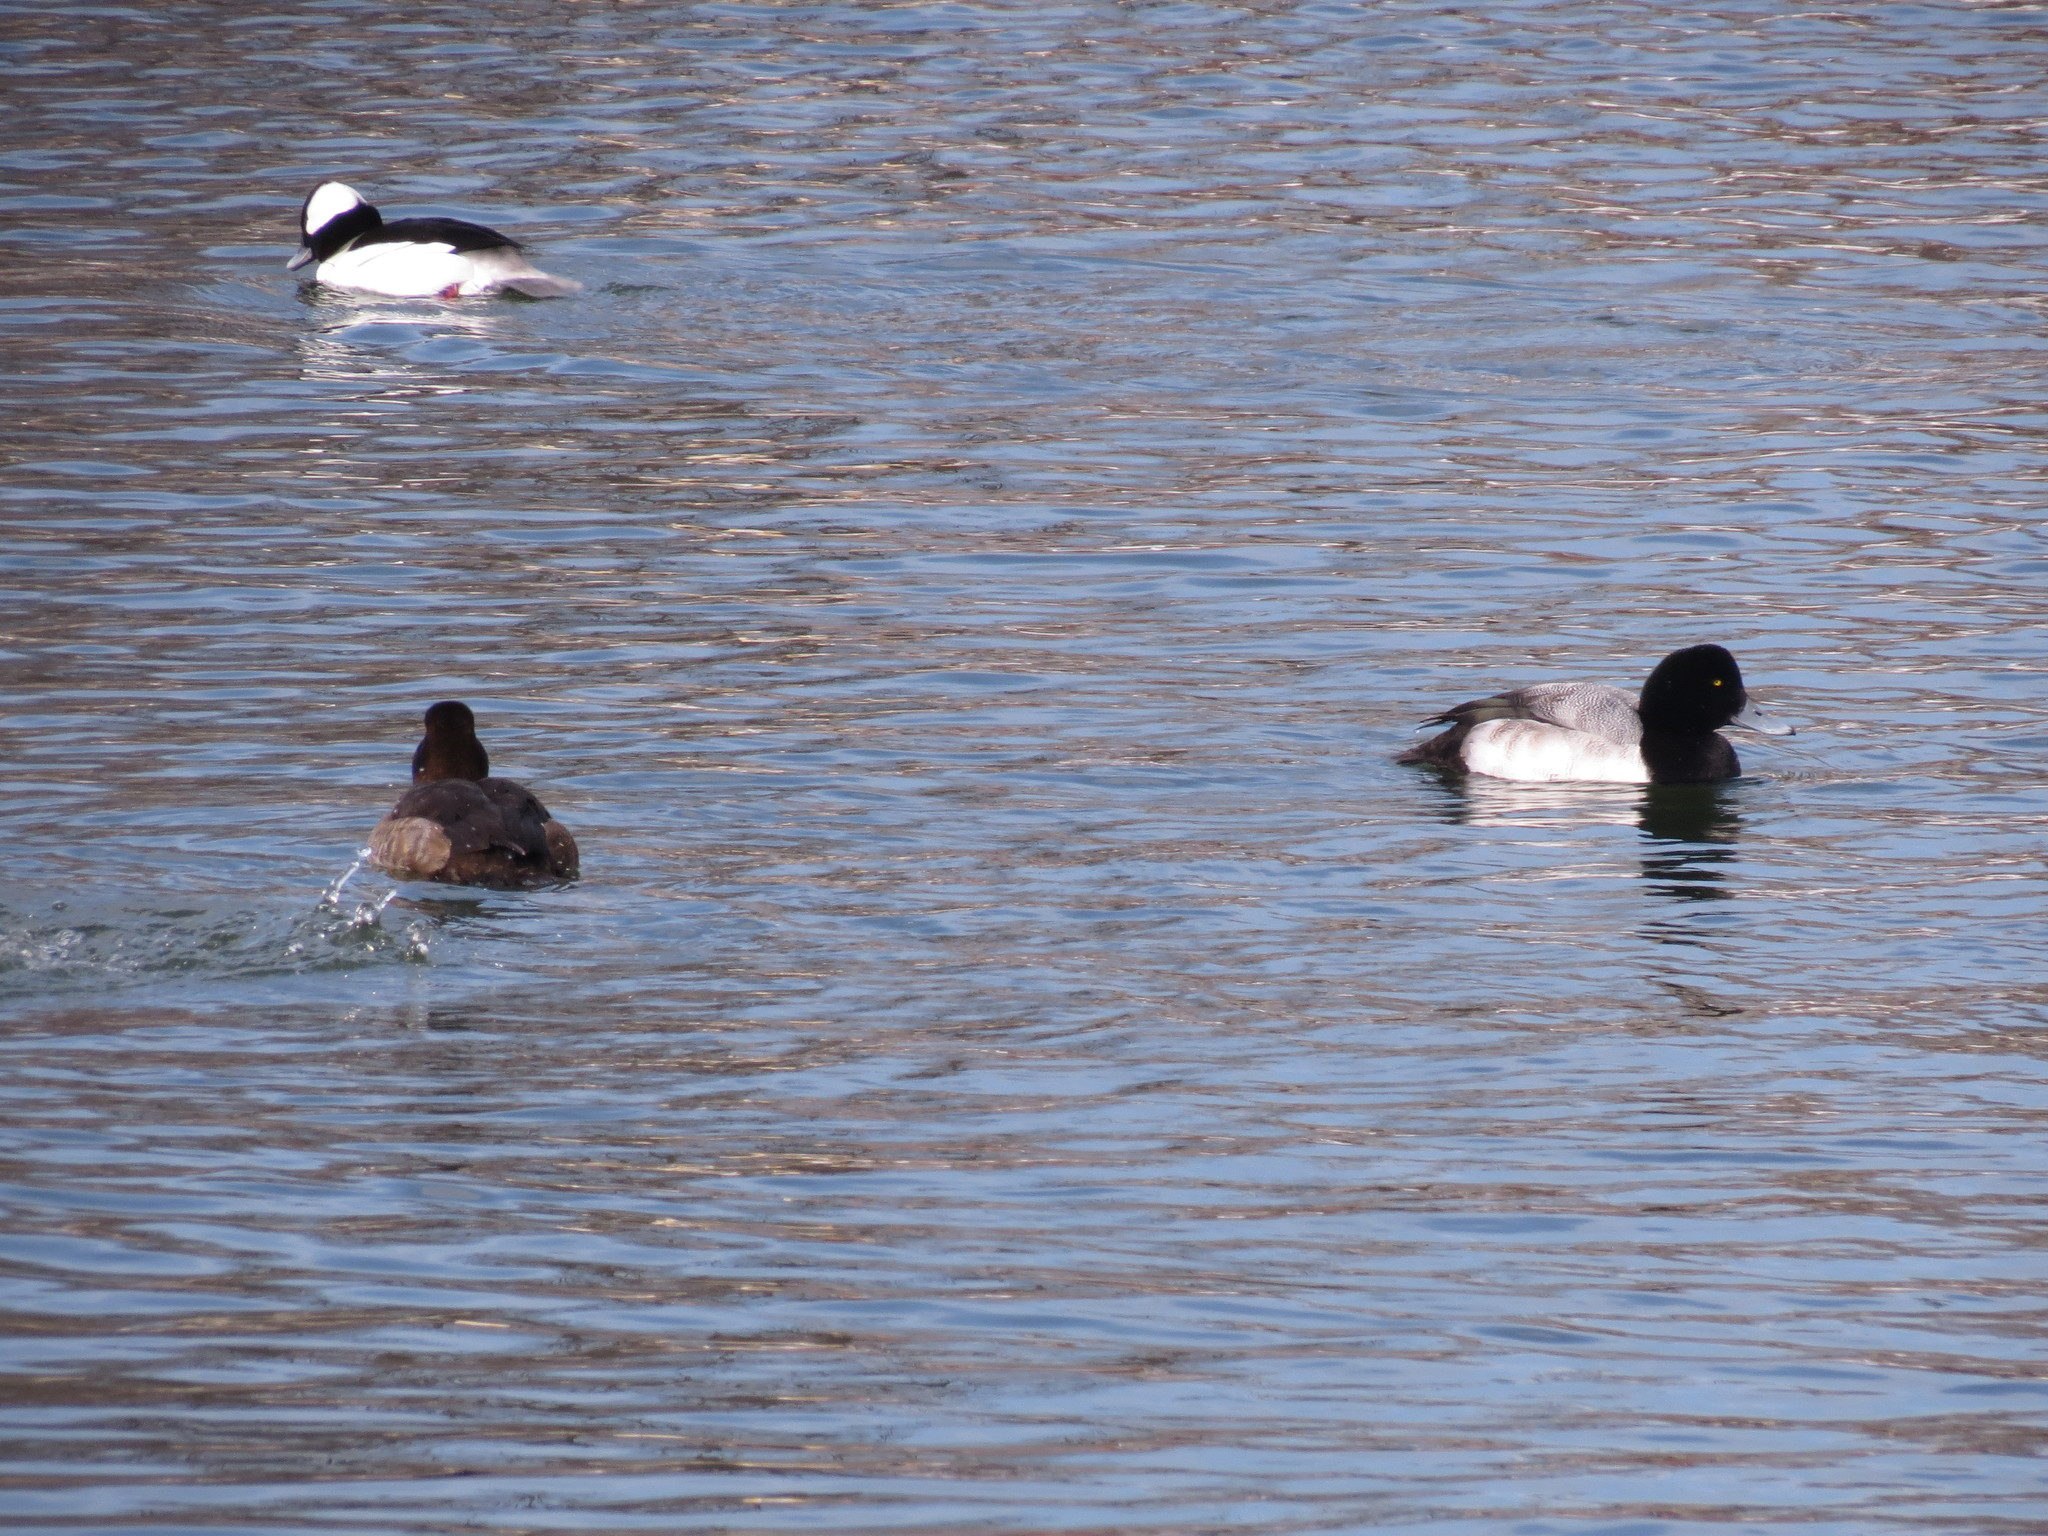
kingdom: Animalia
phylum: Chordata
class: Aves
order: Anseriformes
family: Anatidae
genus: Aythya
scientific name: Aythya marila
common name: Greater scaup
